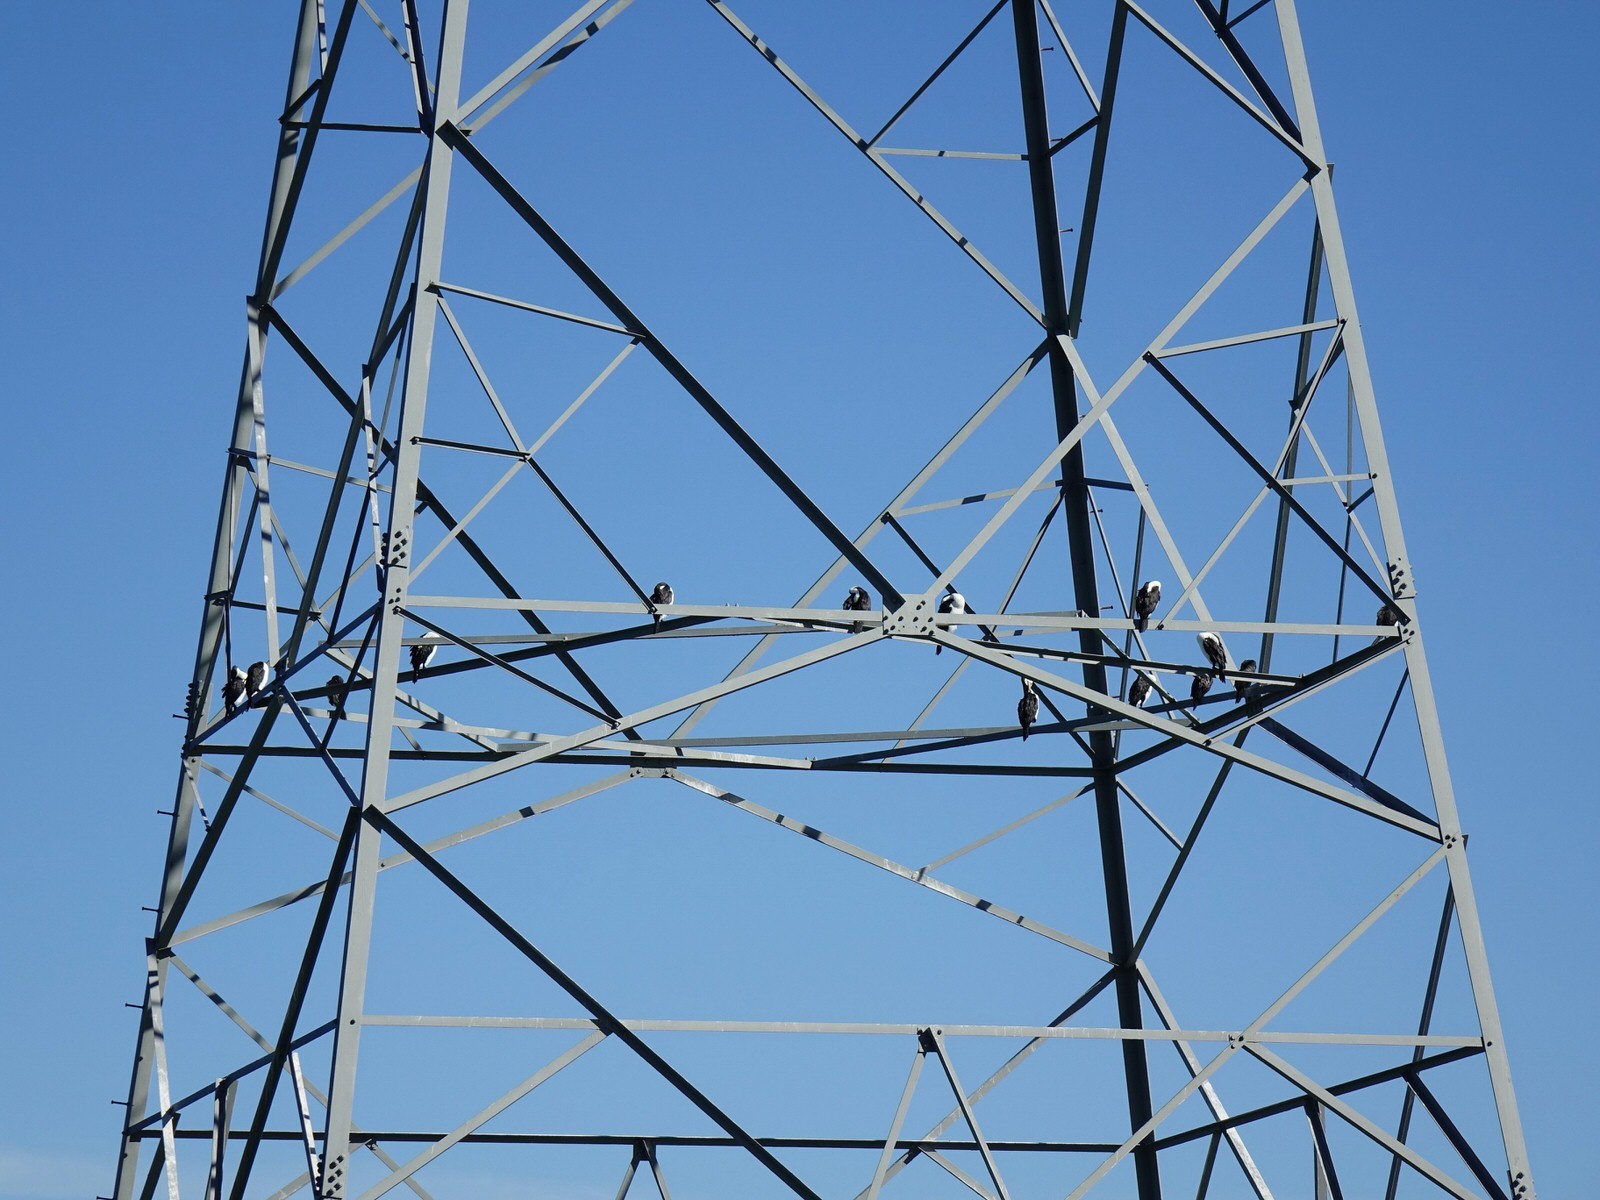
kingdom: Animalia
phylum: Chordata
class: Aves
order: Suliformes
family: Phalacrocoracidae
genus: Phalacrocorax
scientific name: Phalacrocorax varius
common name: Pied cormorant
